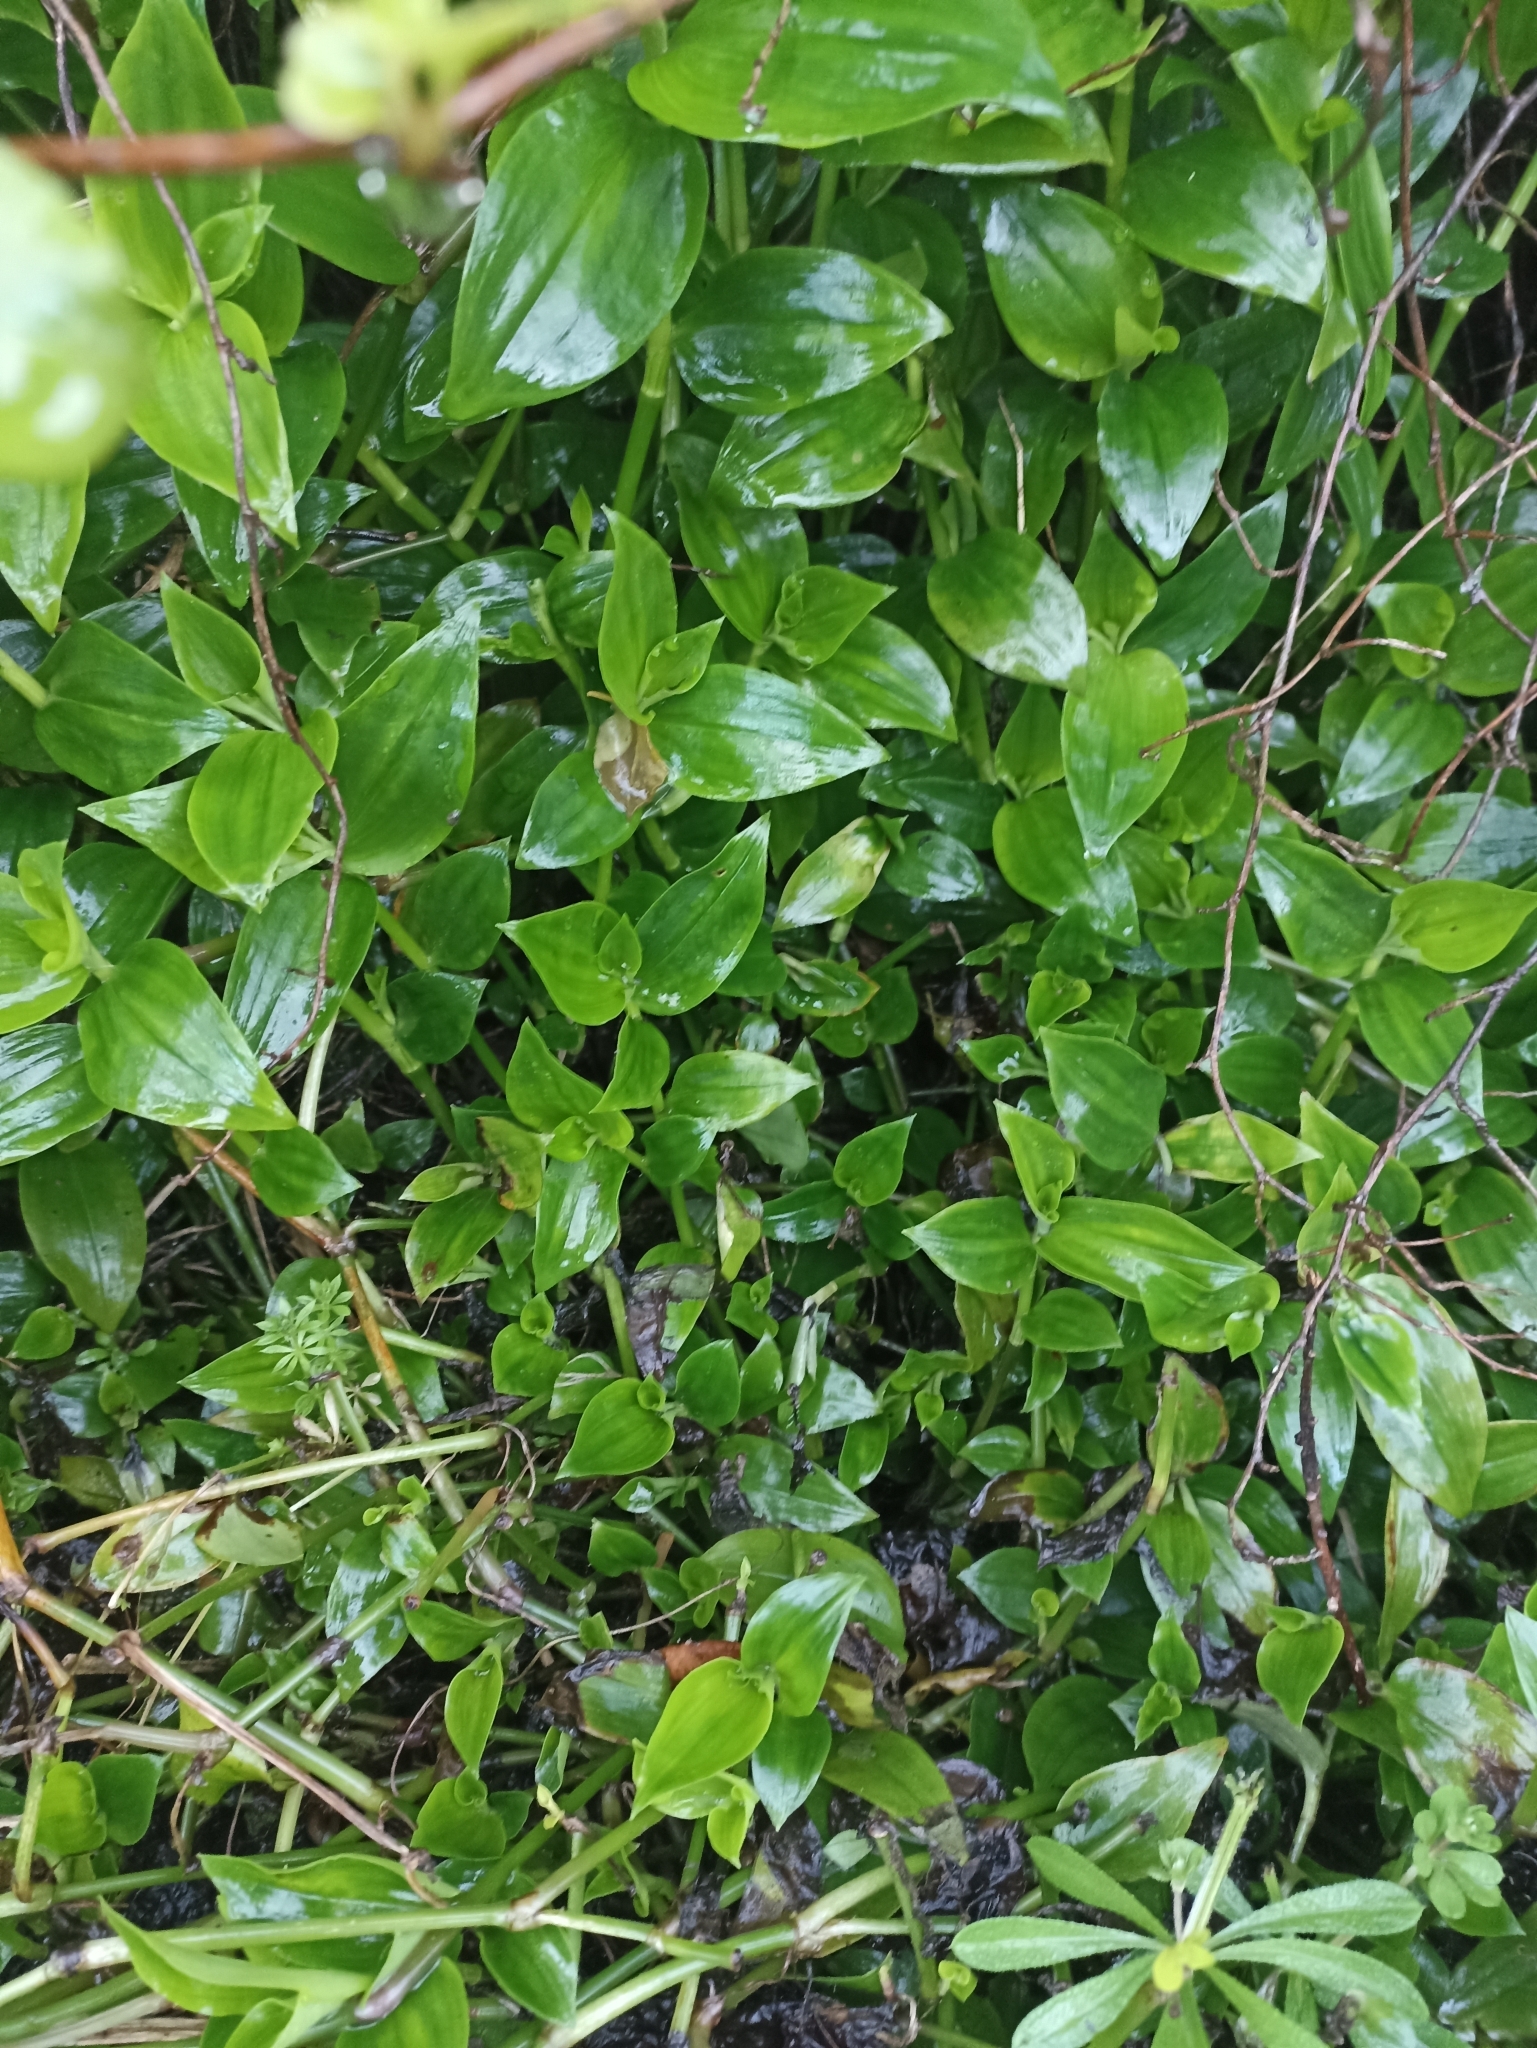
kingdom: Plantae
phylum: Tracheophyta
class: Liliopsida
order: Commelinales
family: Commelinaceae
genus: Tradescantia
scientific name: Tradescantia fluminensis
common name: Wandering-jew
